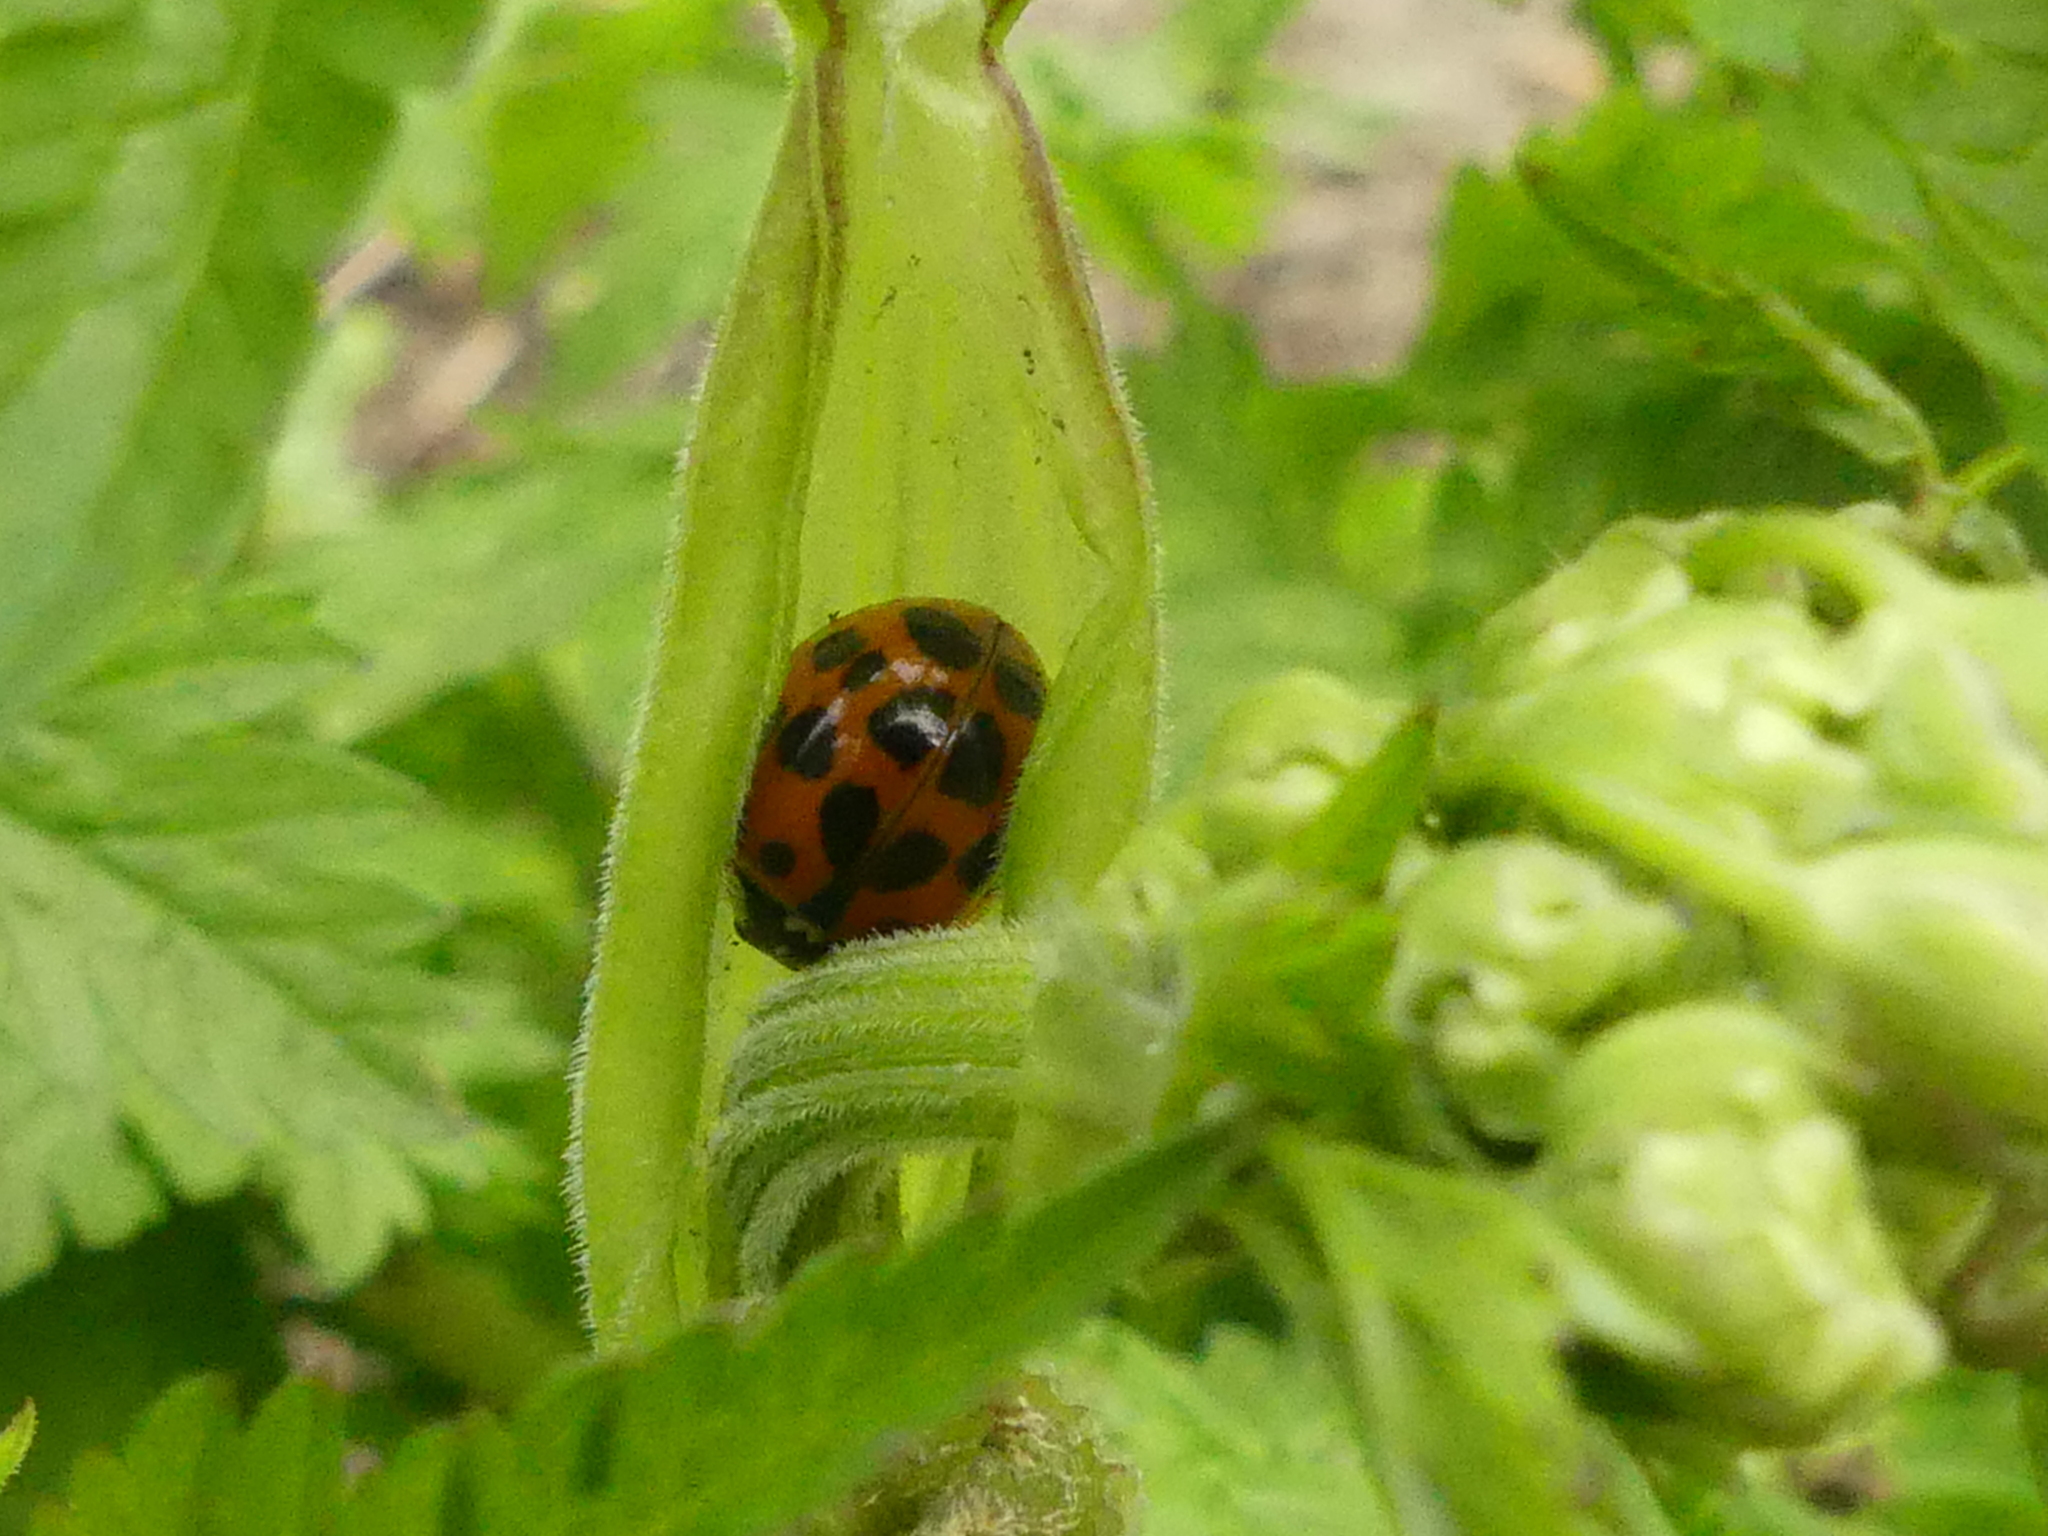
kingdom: Animalia
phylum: Arthropoda
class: Insecta
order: Coleoptera
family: Coccinellidae
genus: Harmonia
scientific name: Harmonia axyridis
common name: Harlequin ladybird
